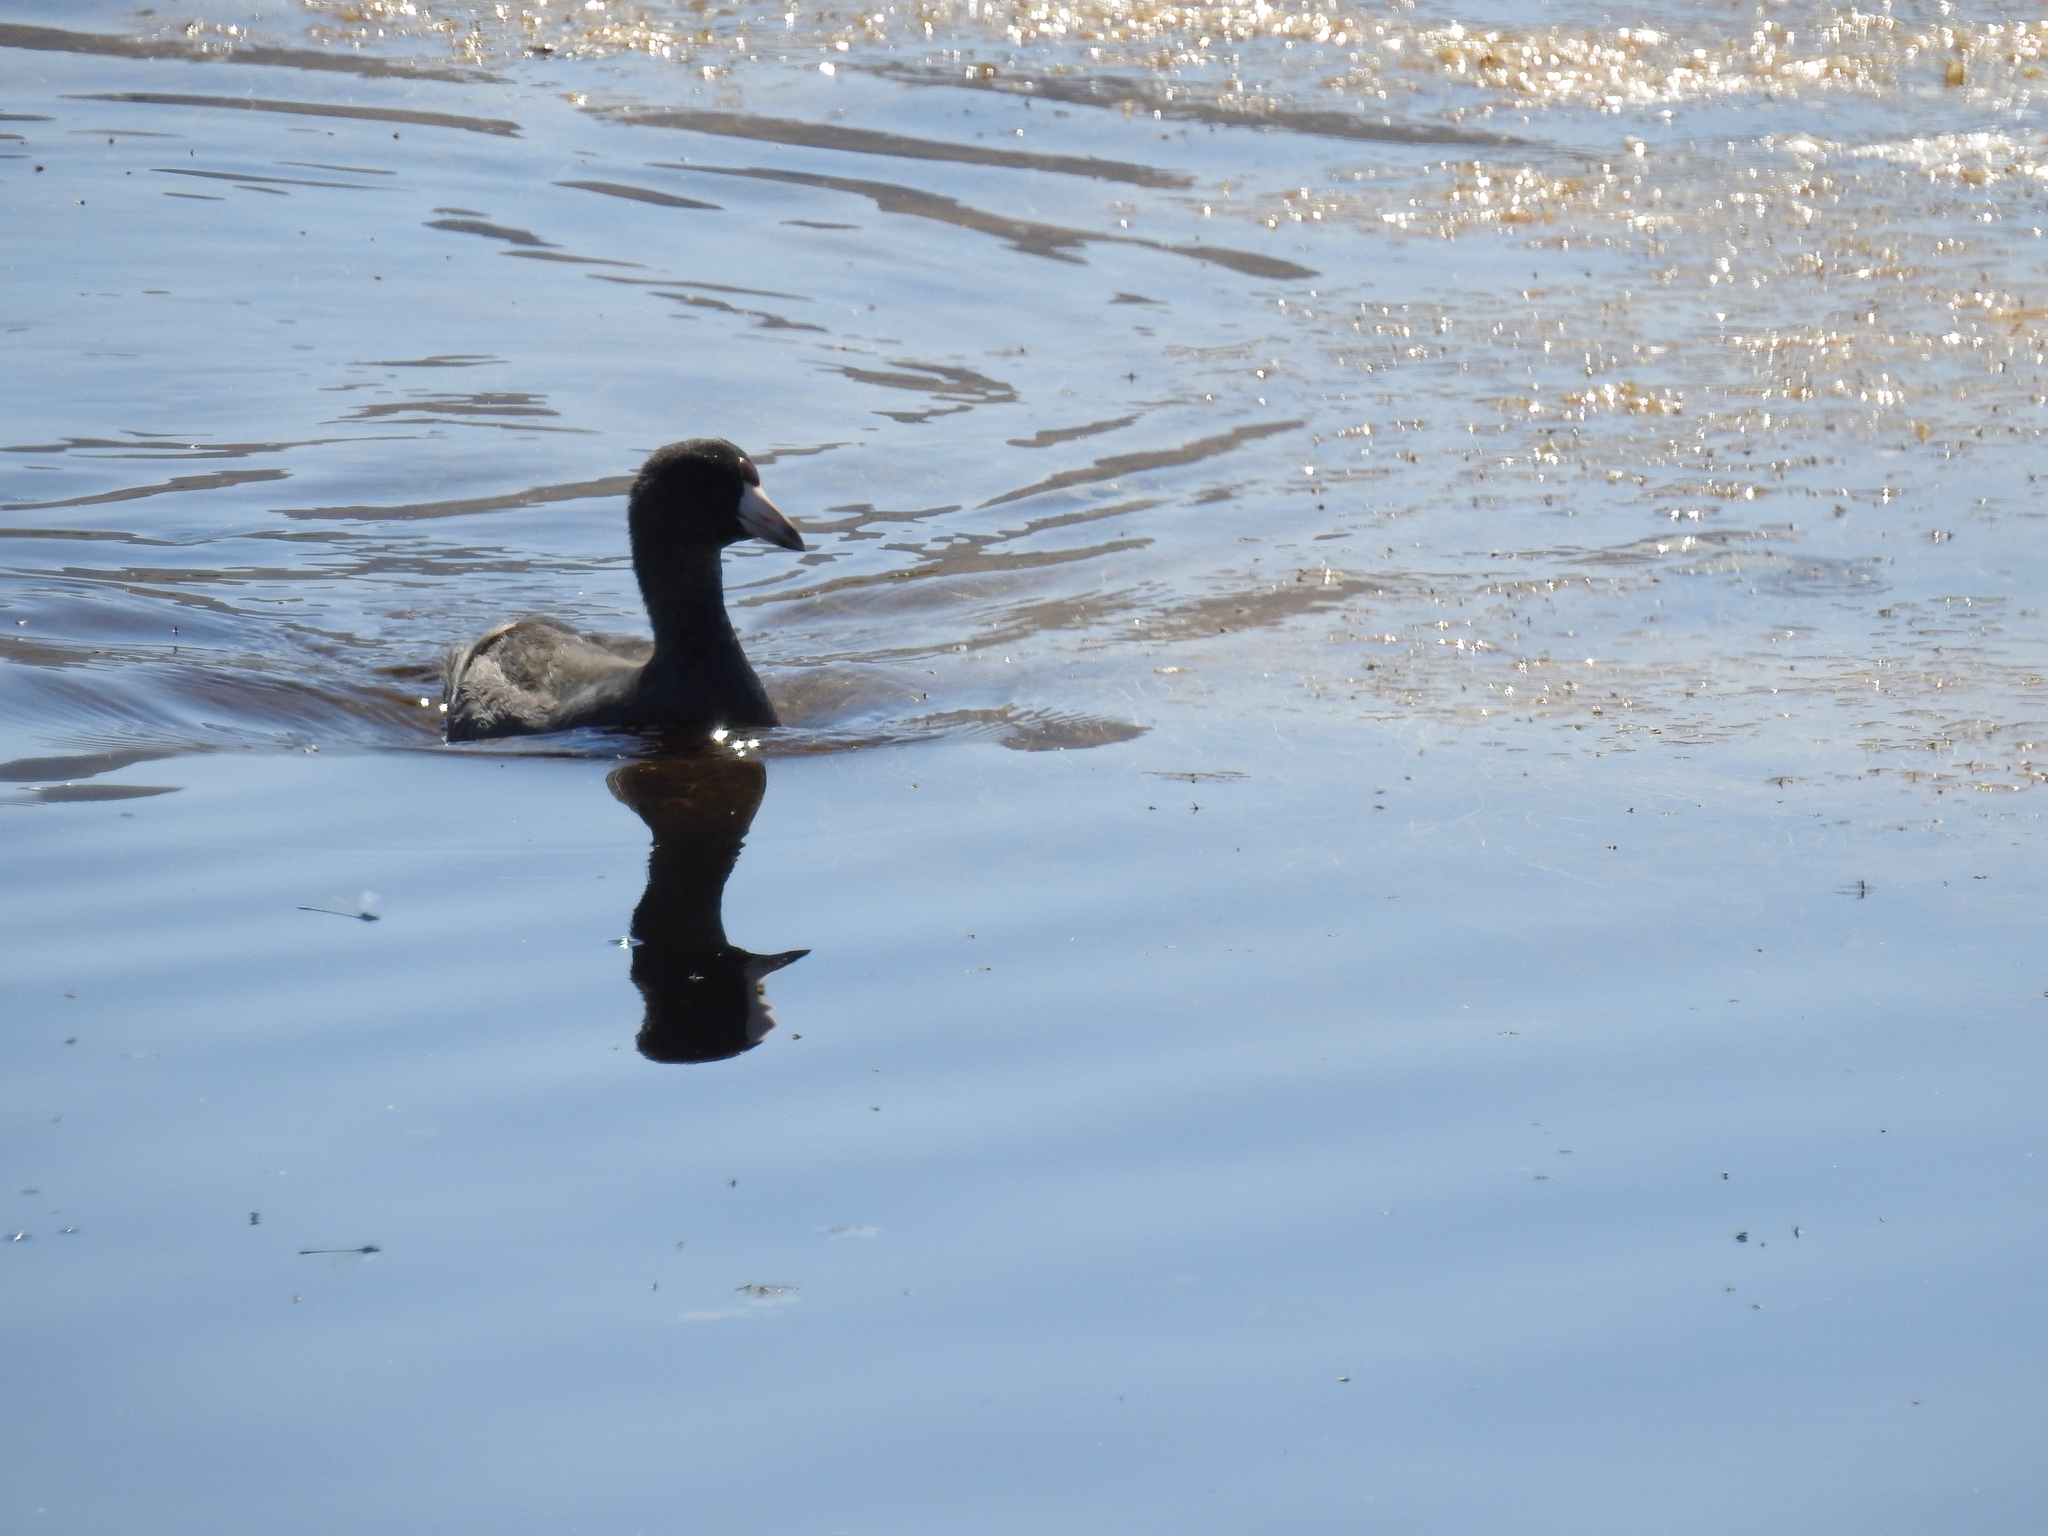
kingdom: Animalia
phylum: Chordata
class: Aves
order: Gruiformes
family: Rallidae
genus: Fulica
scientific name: Fulica americana
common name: American coot
